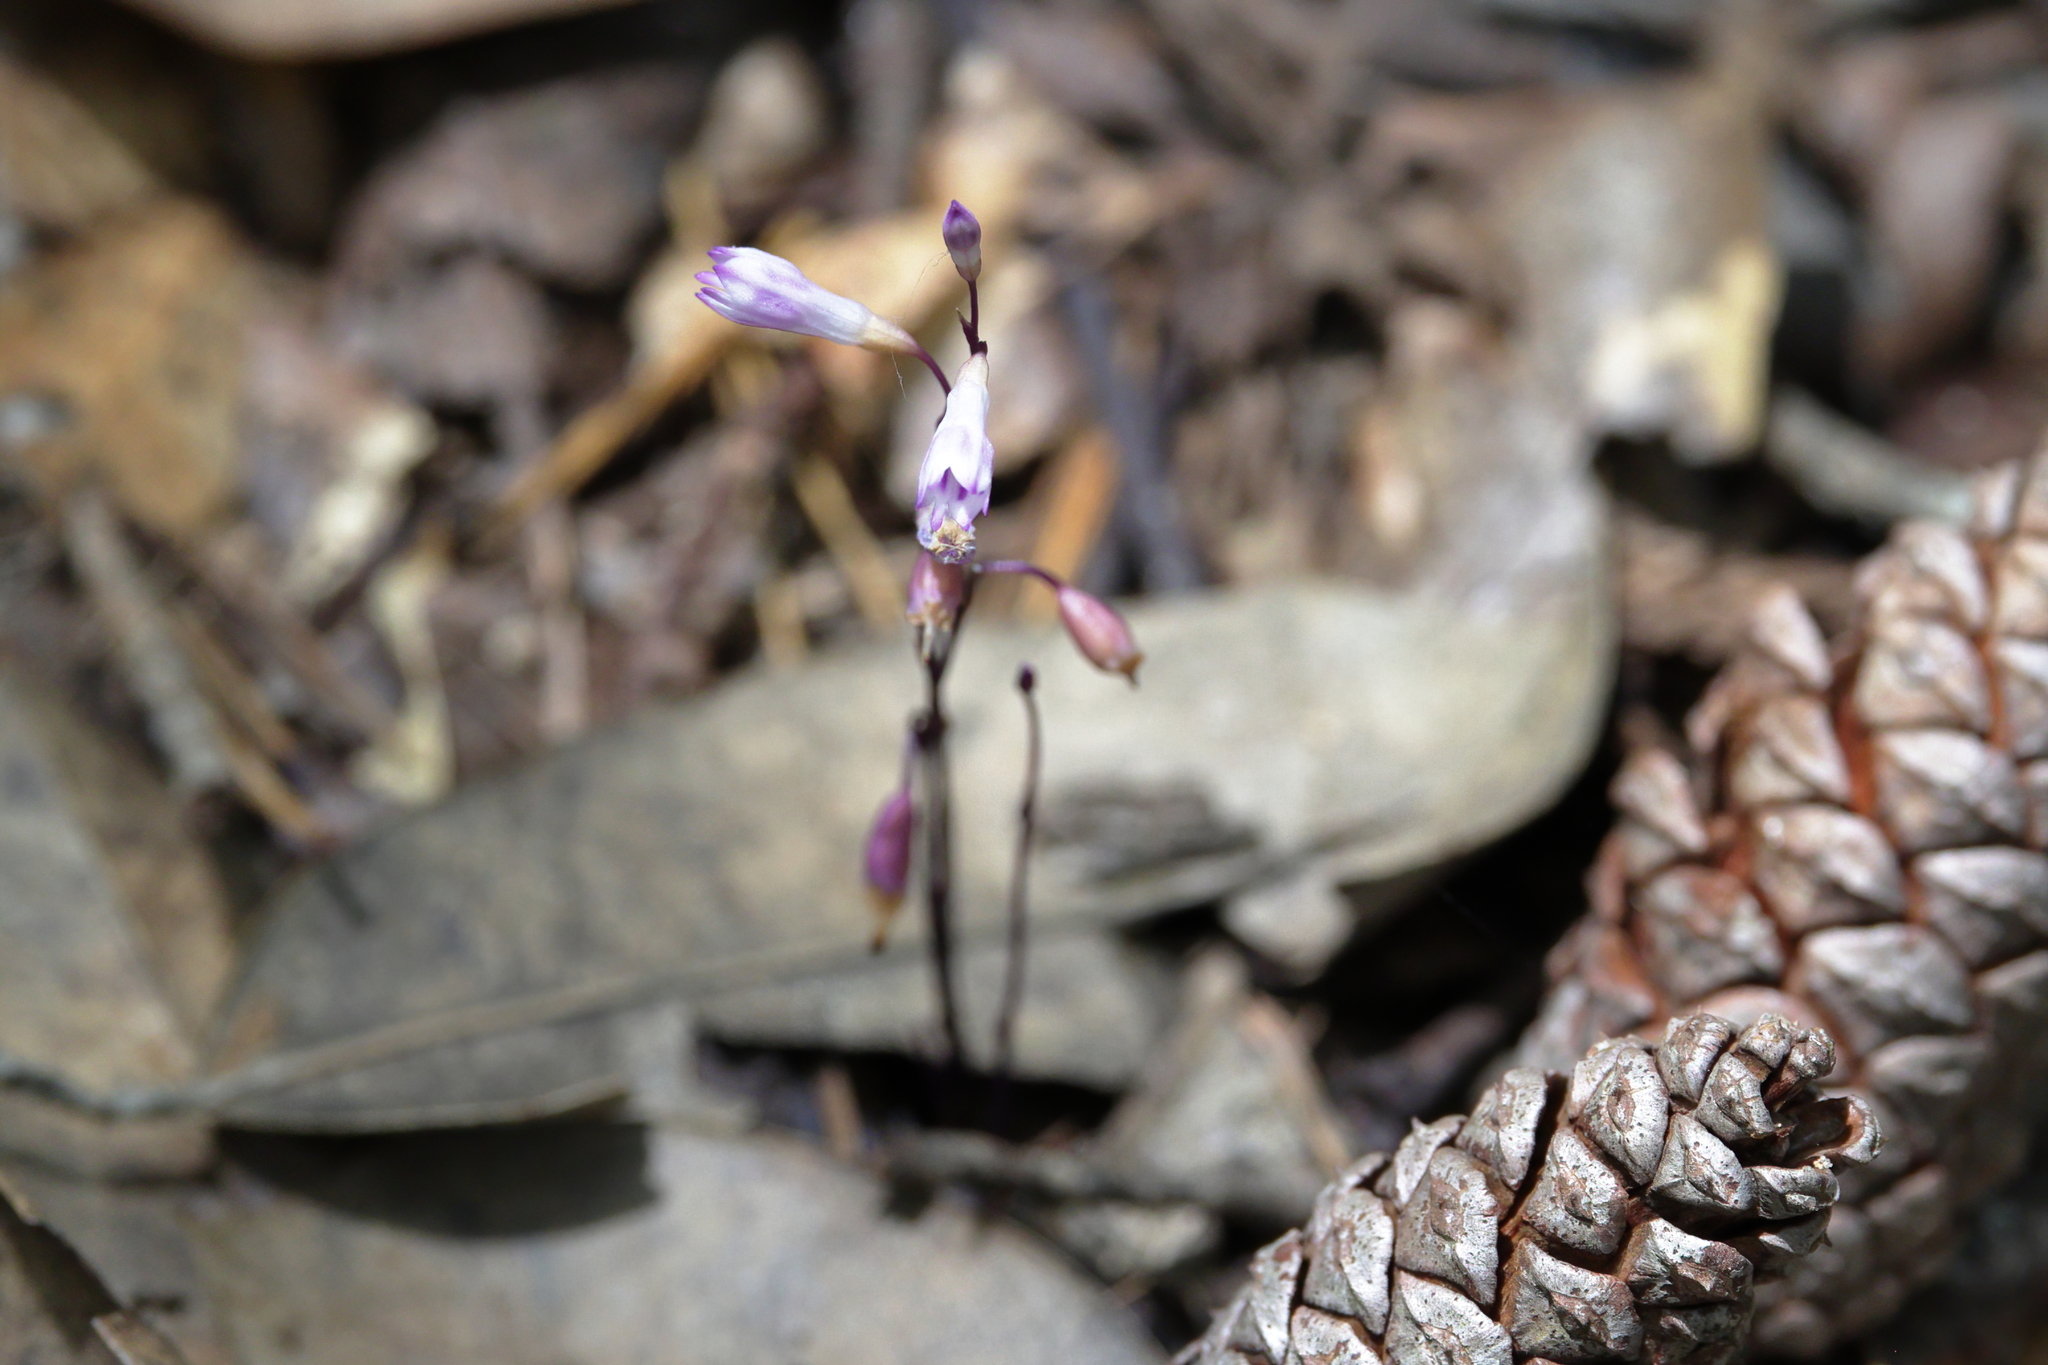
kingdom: Plantae
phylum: Tracheophyta
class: Liliopsida
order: Dioscoreales
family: Burmanniaceae
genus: Apteria
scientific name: Apteria aphylla
